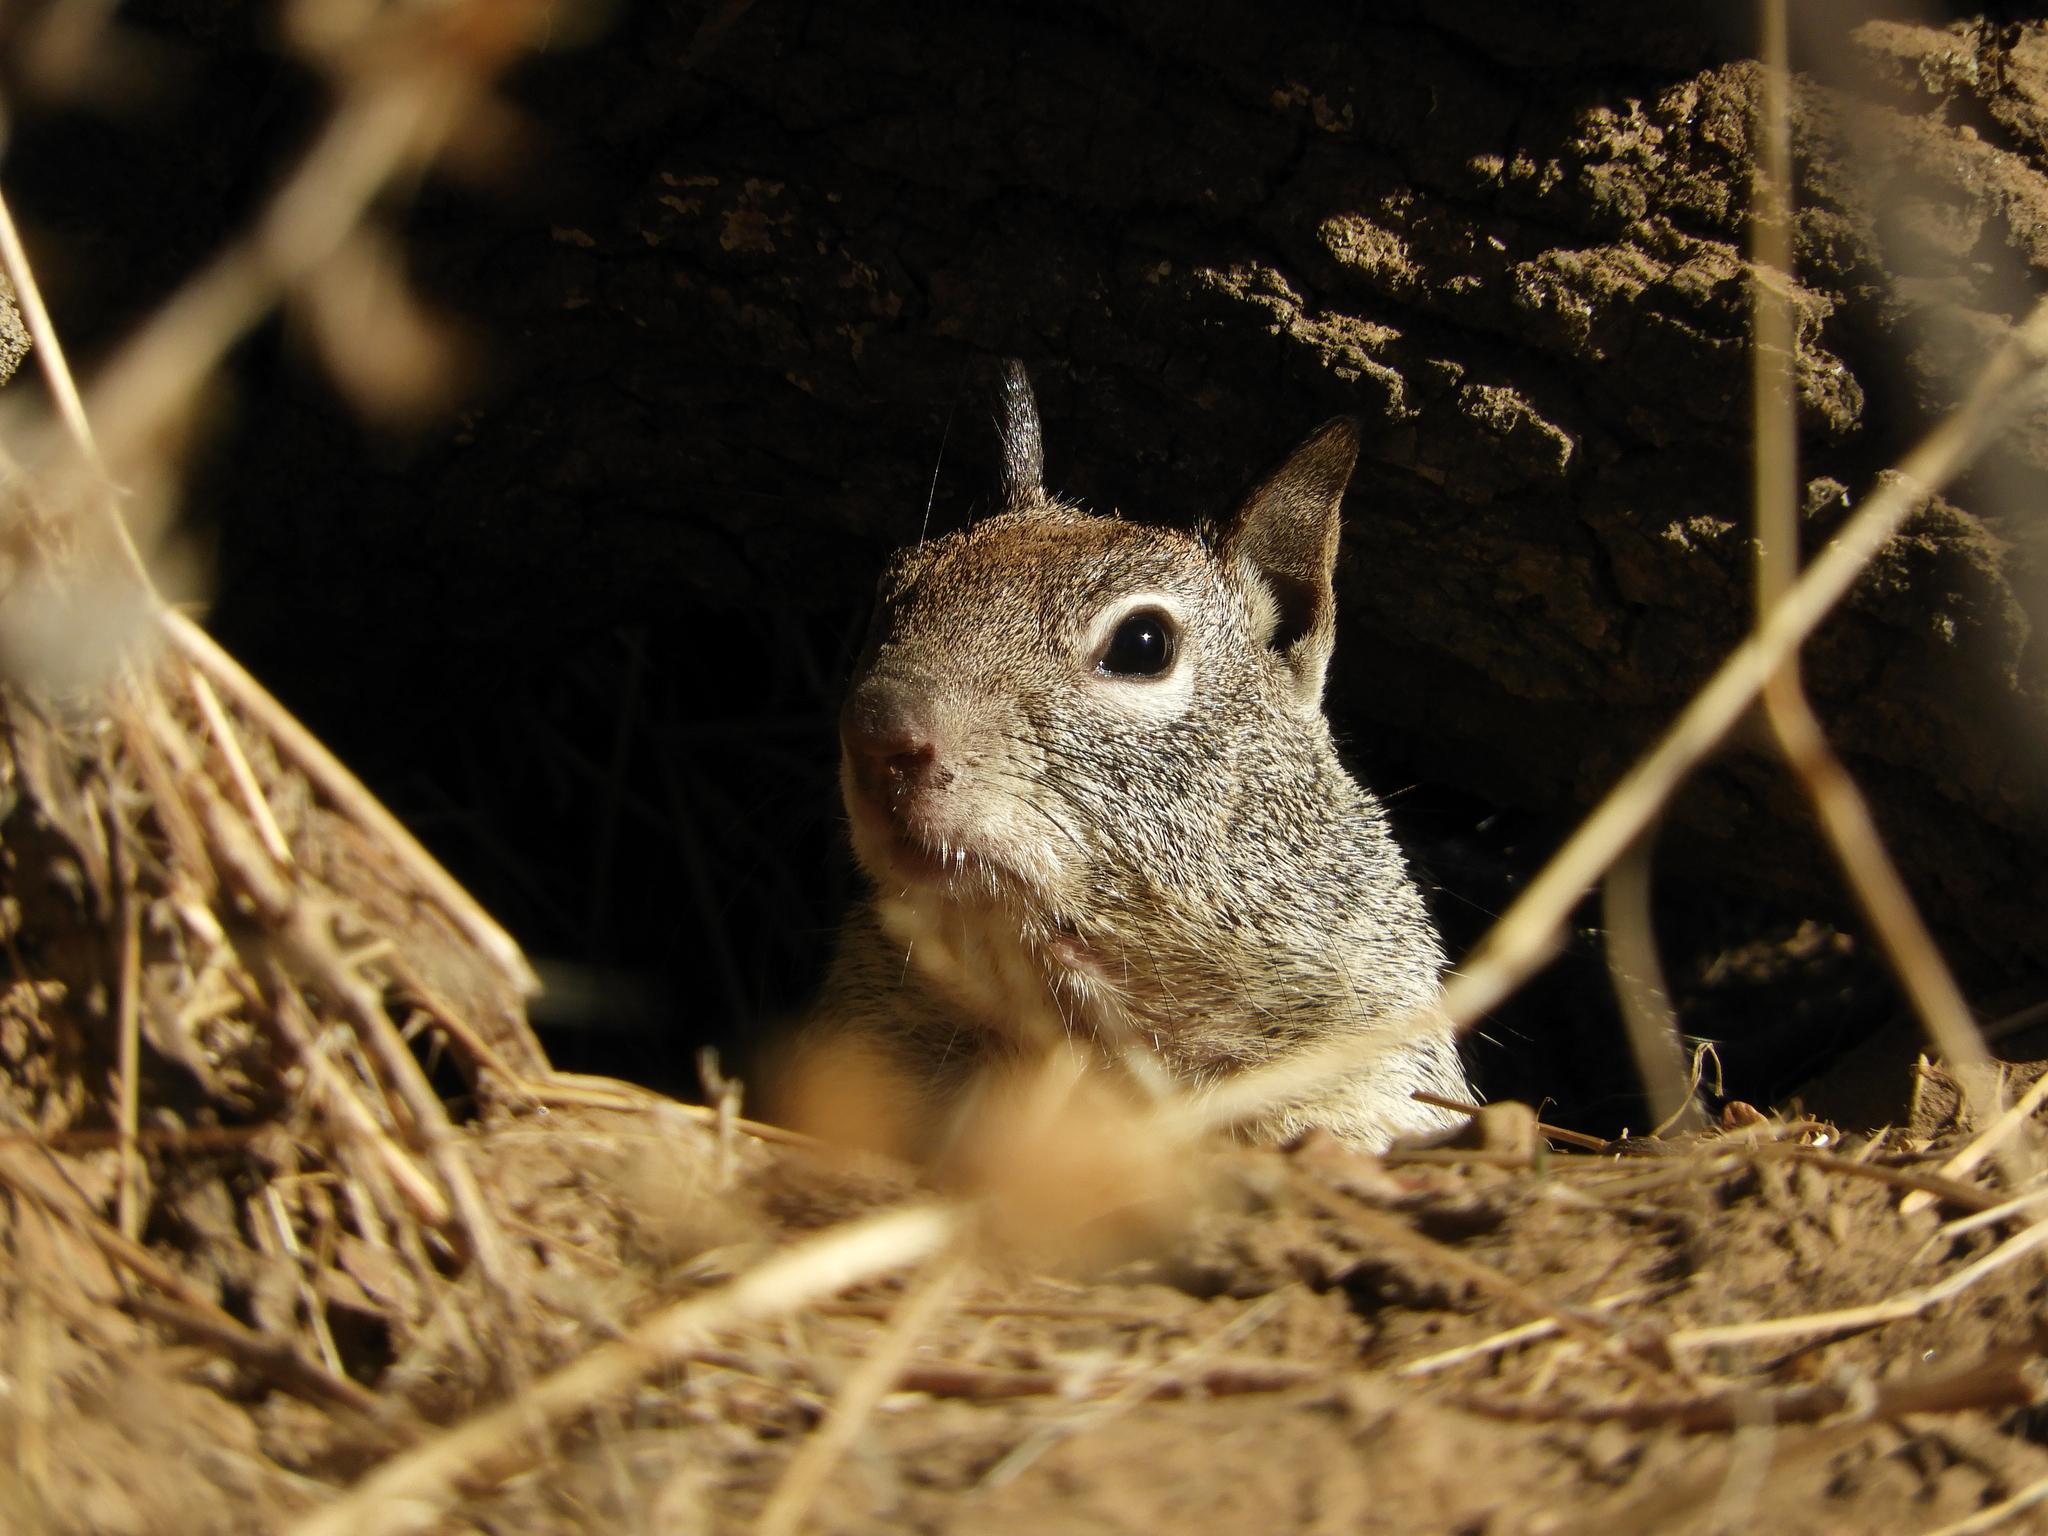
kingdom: Animalia
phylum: Chordata
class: Mammalia
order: Rodentia
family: Sciuridae
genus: Otospermophilus
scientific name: Otospermophilus beecheyi
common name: California ground squirrel
